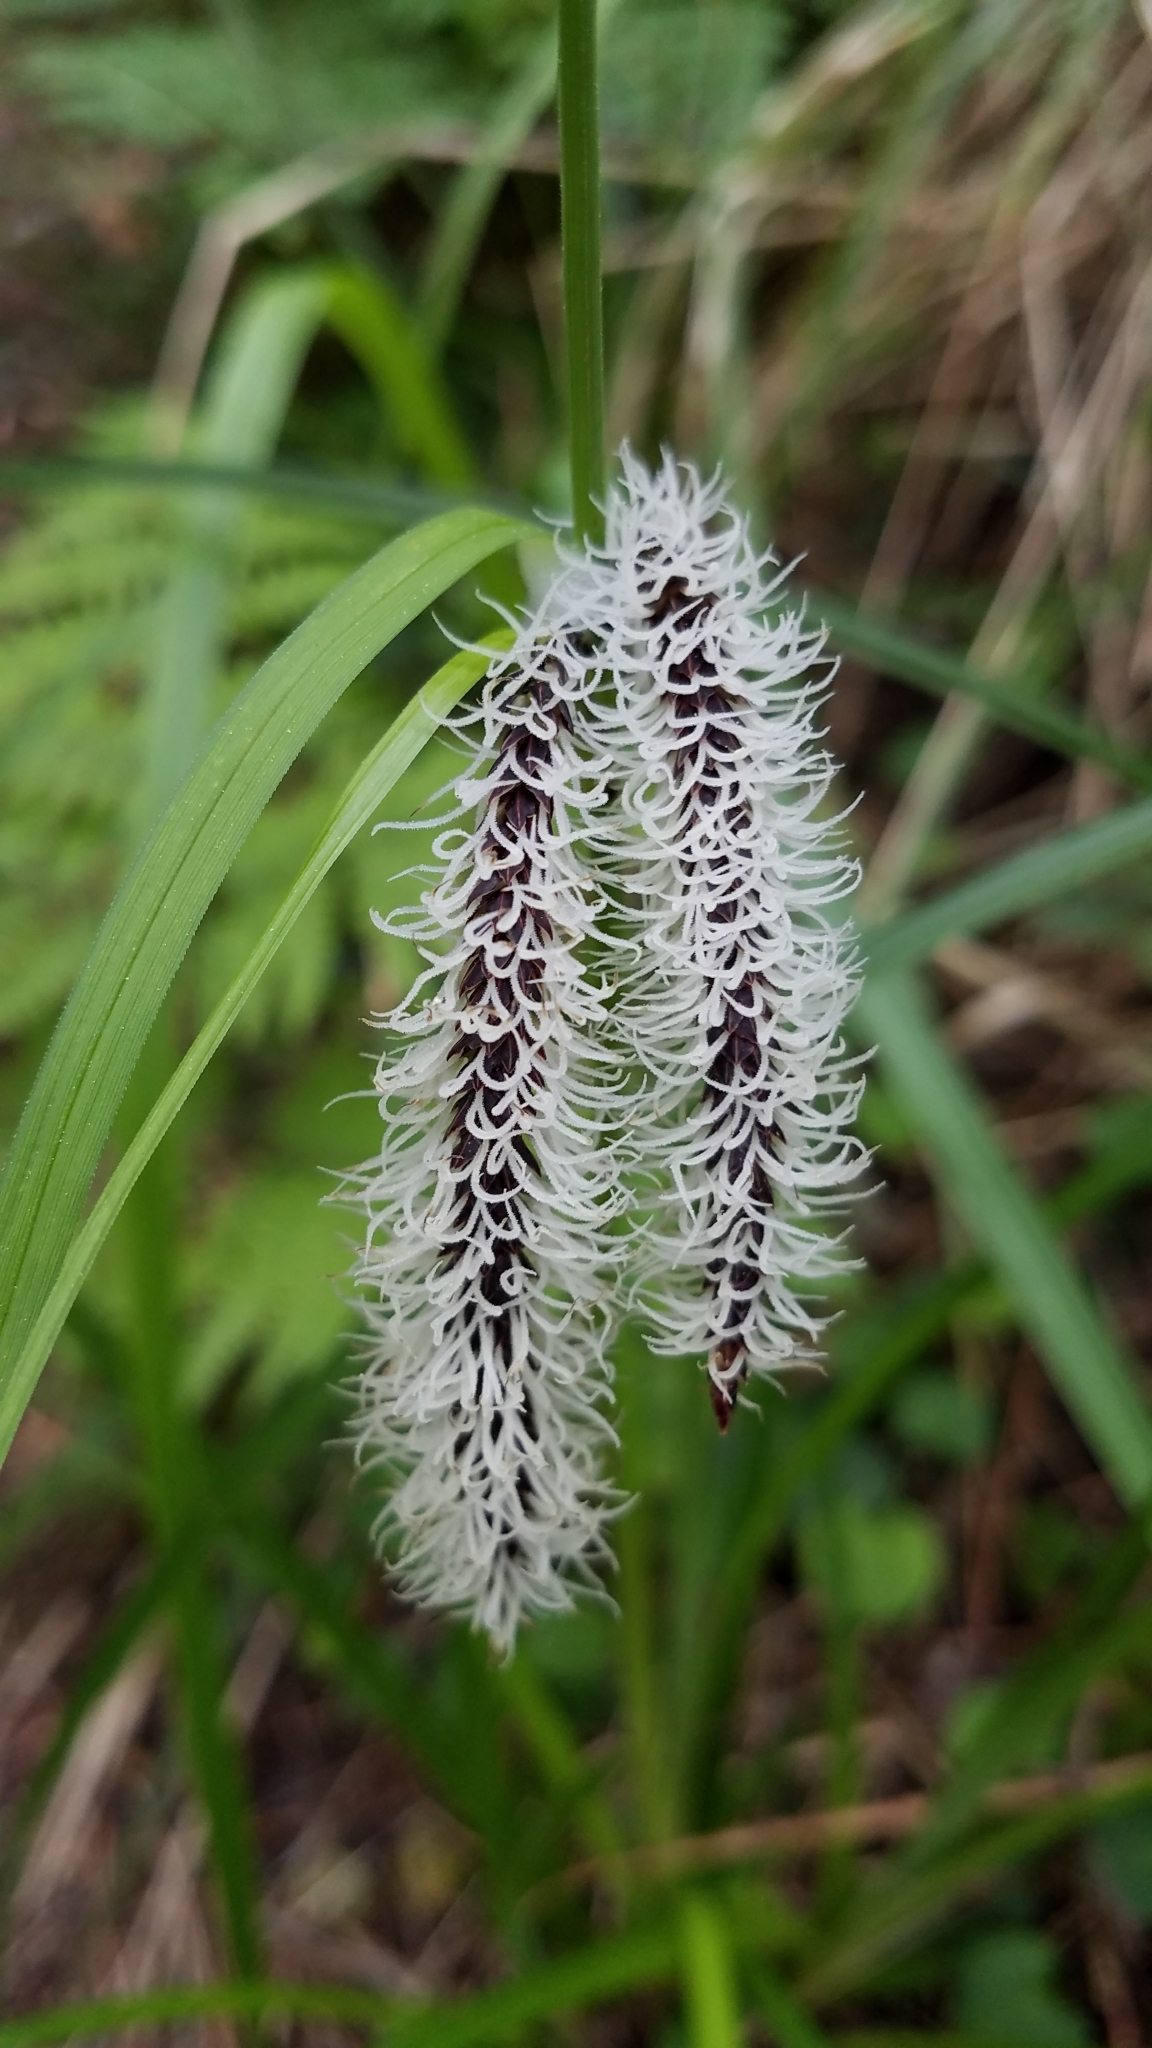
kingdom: Plantae
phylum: Tracheophyta
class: Liliopsida
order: Poales
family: Cyperaceae
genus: Carex
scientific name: Carex obnupta
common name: Slough sedge
